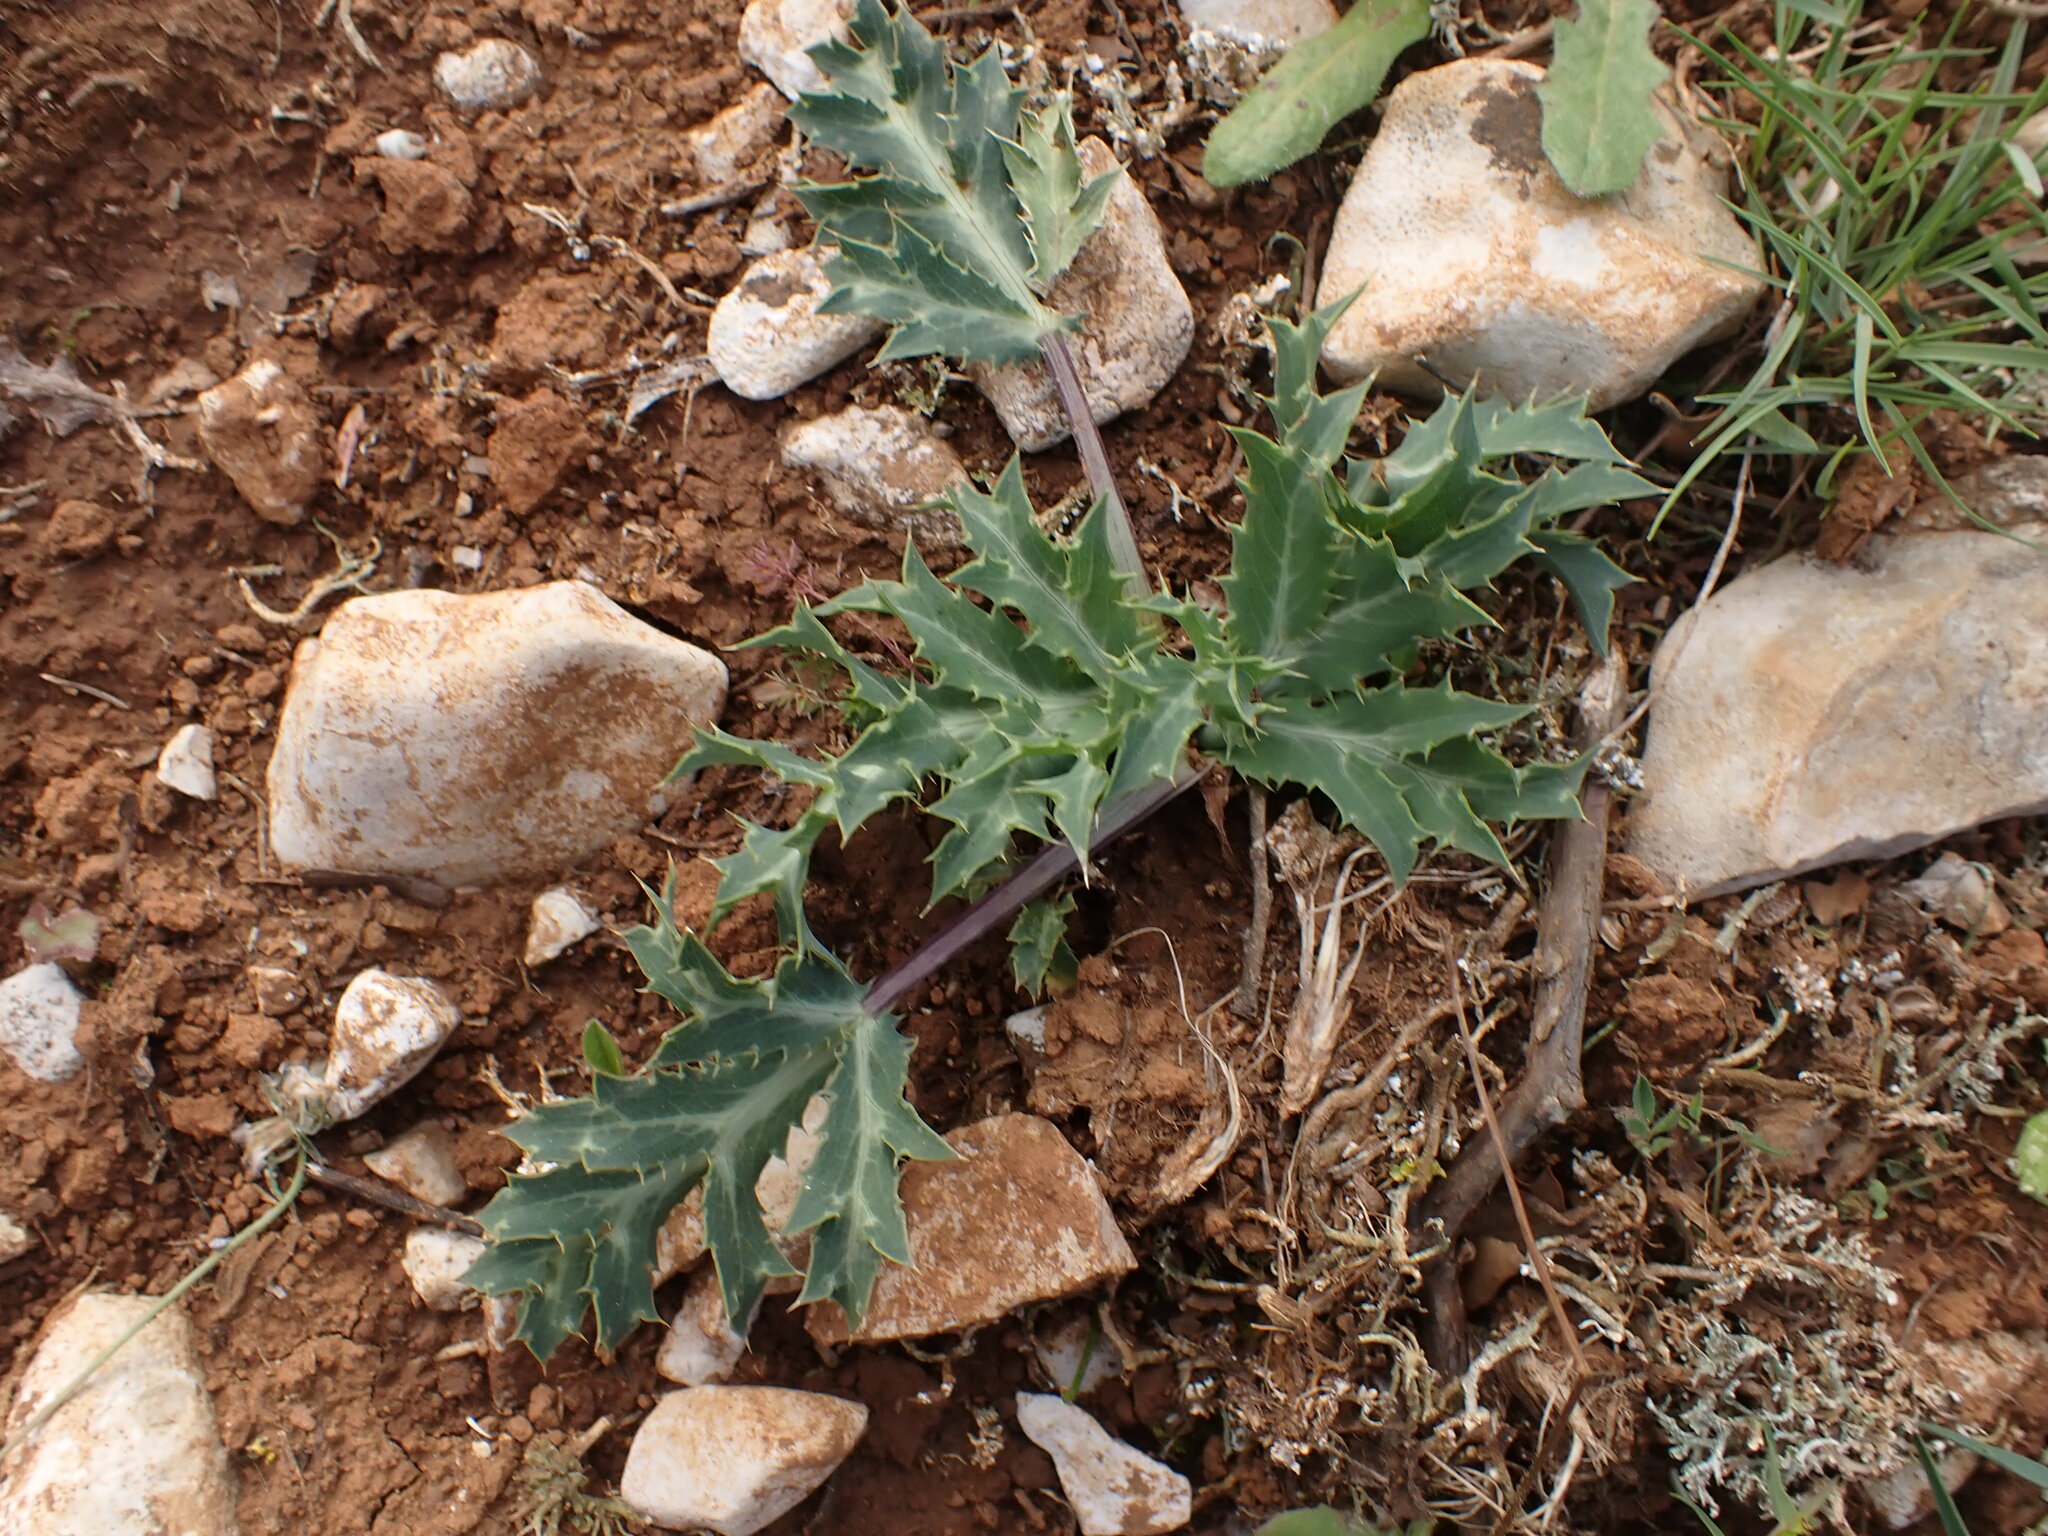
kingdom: Plantae
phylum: Tracheophyta
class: Magnoliopsida
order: Apiales
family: Apiaceae
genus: Eryngium
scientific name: Eryngium campestre
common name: Field eryngo
